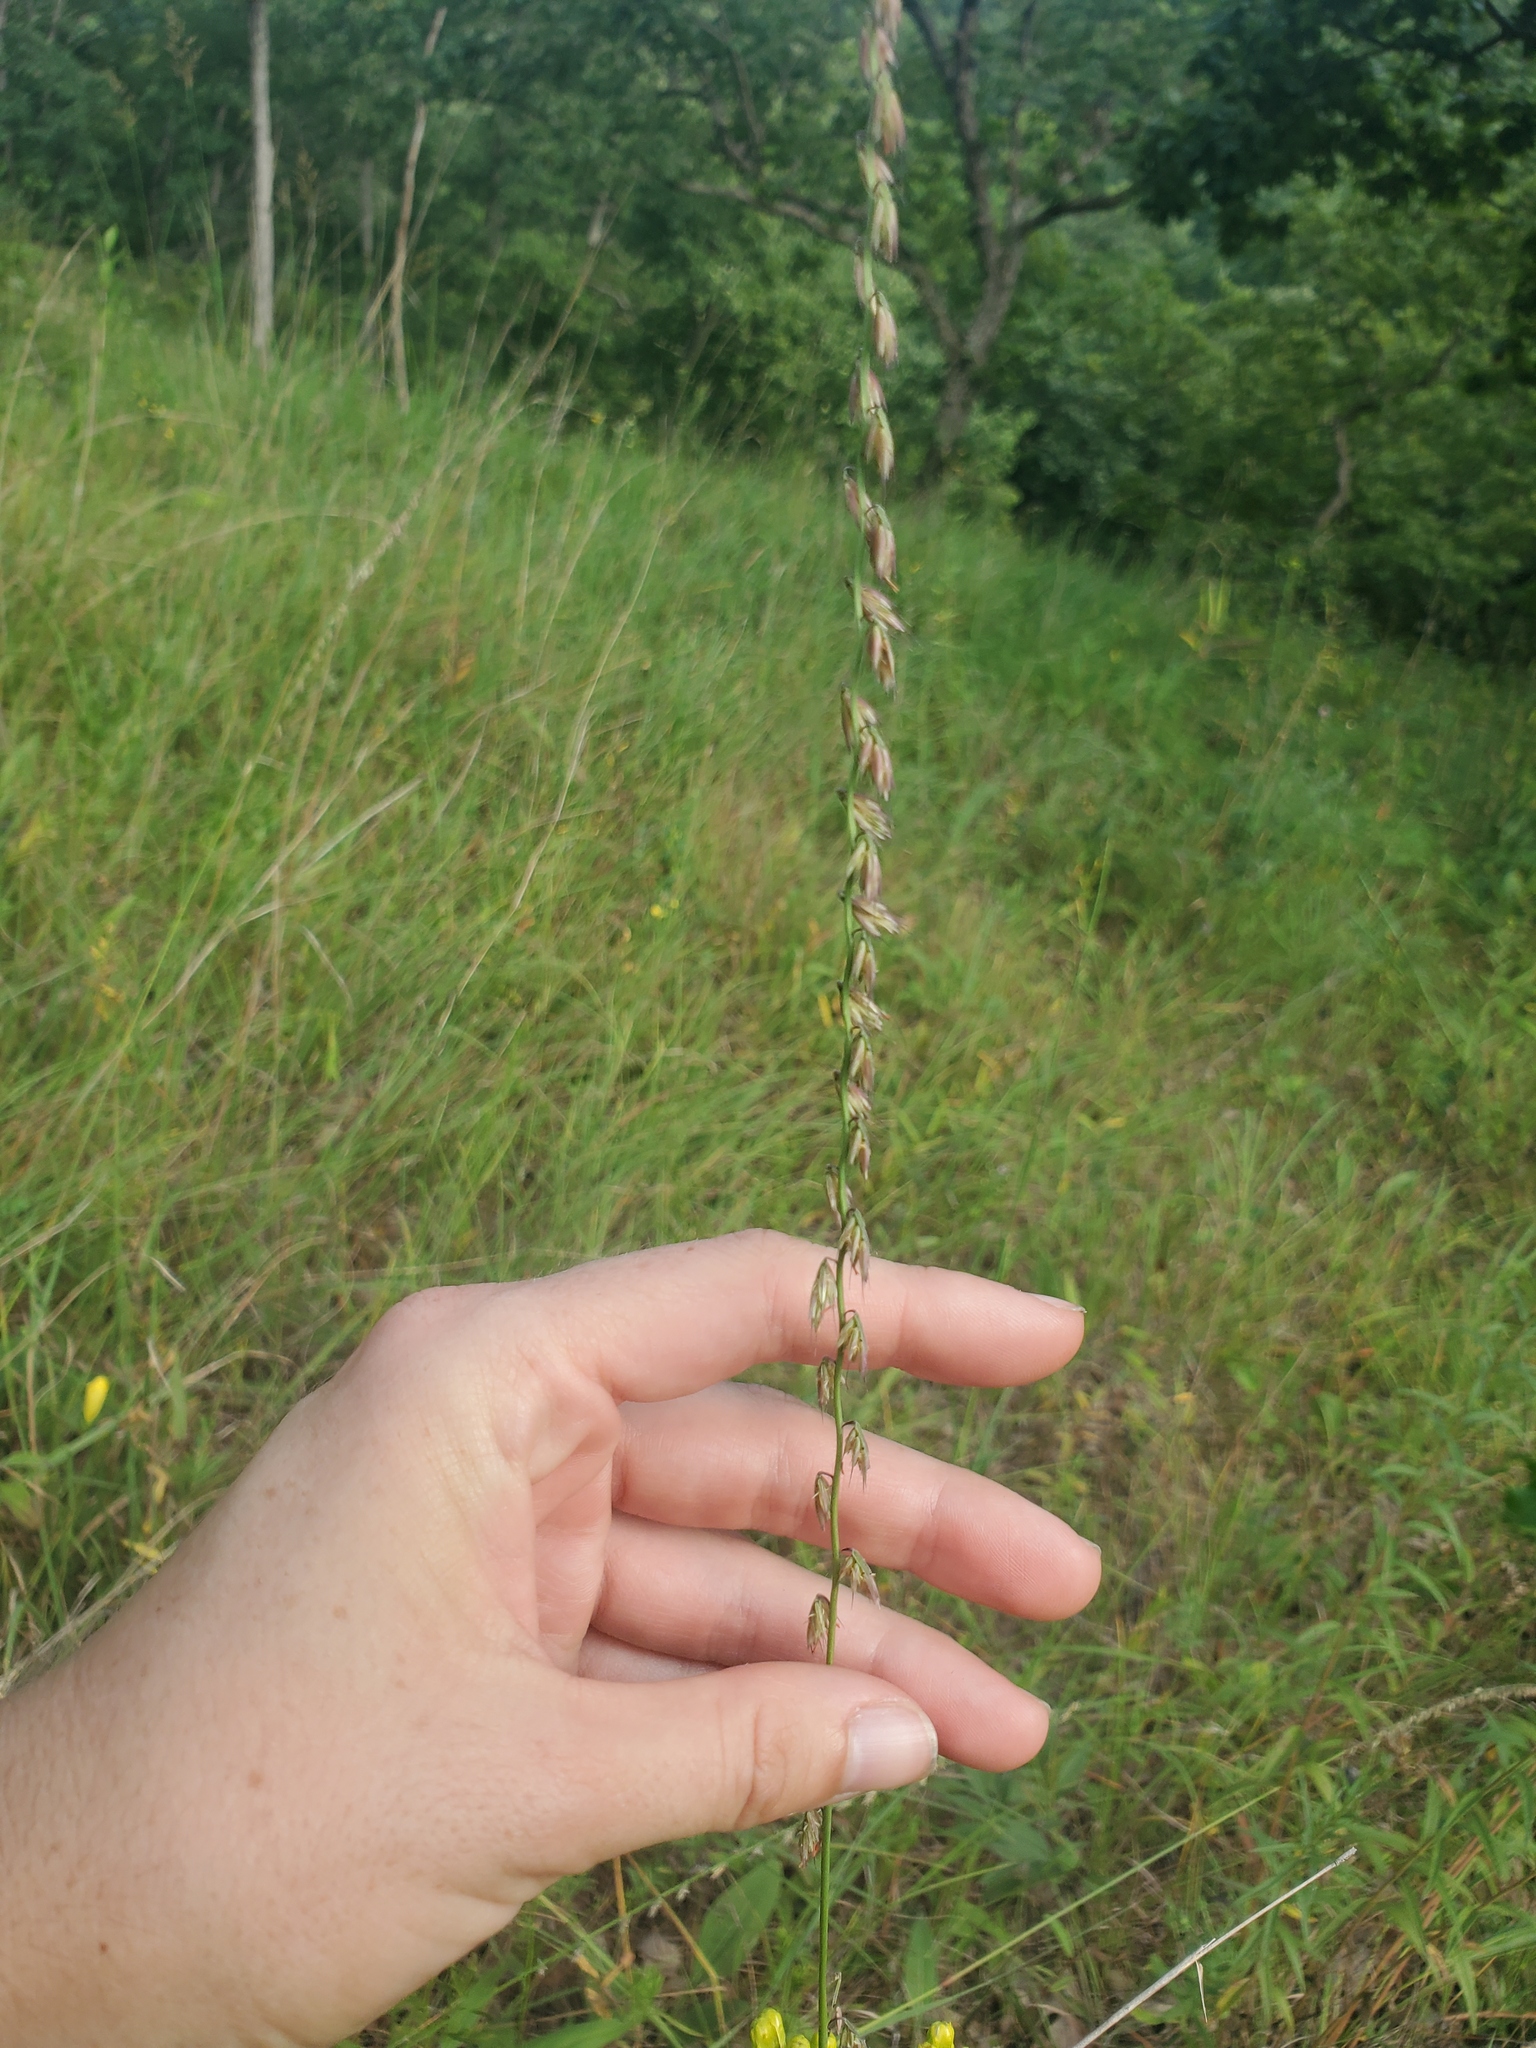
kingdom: Plantae
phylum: Tracheophyta
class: Liliopsida
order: Poales
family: Poaceae
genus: Bouteloua
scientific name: Bouteloua curtipendula
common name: Side-oats grama
